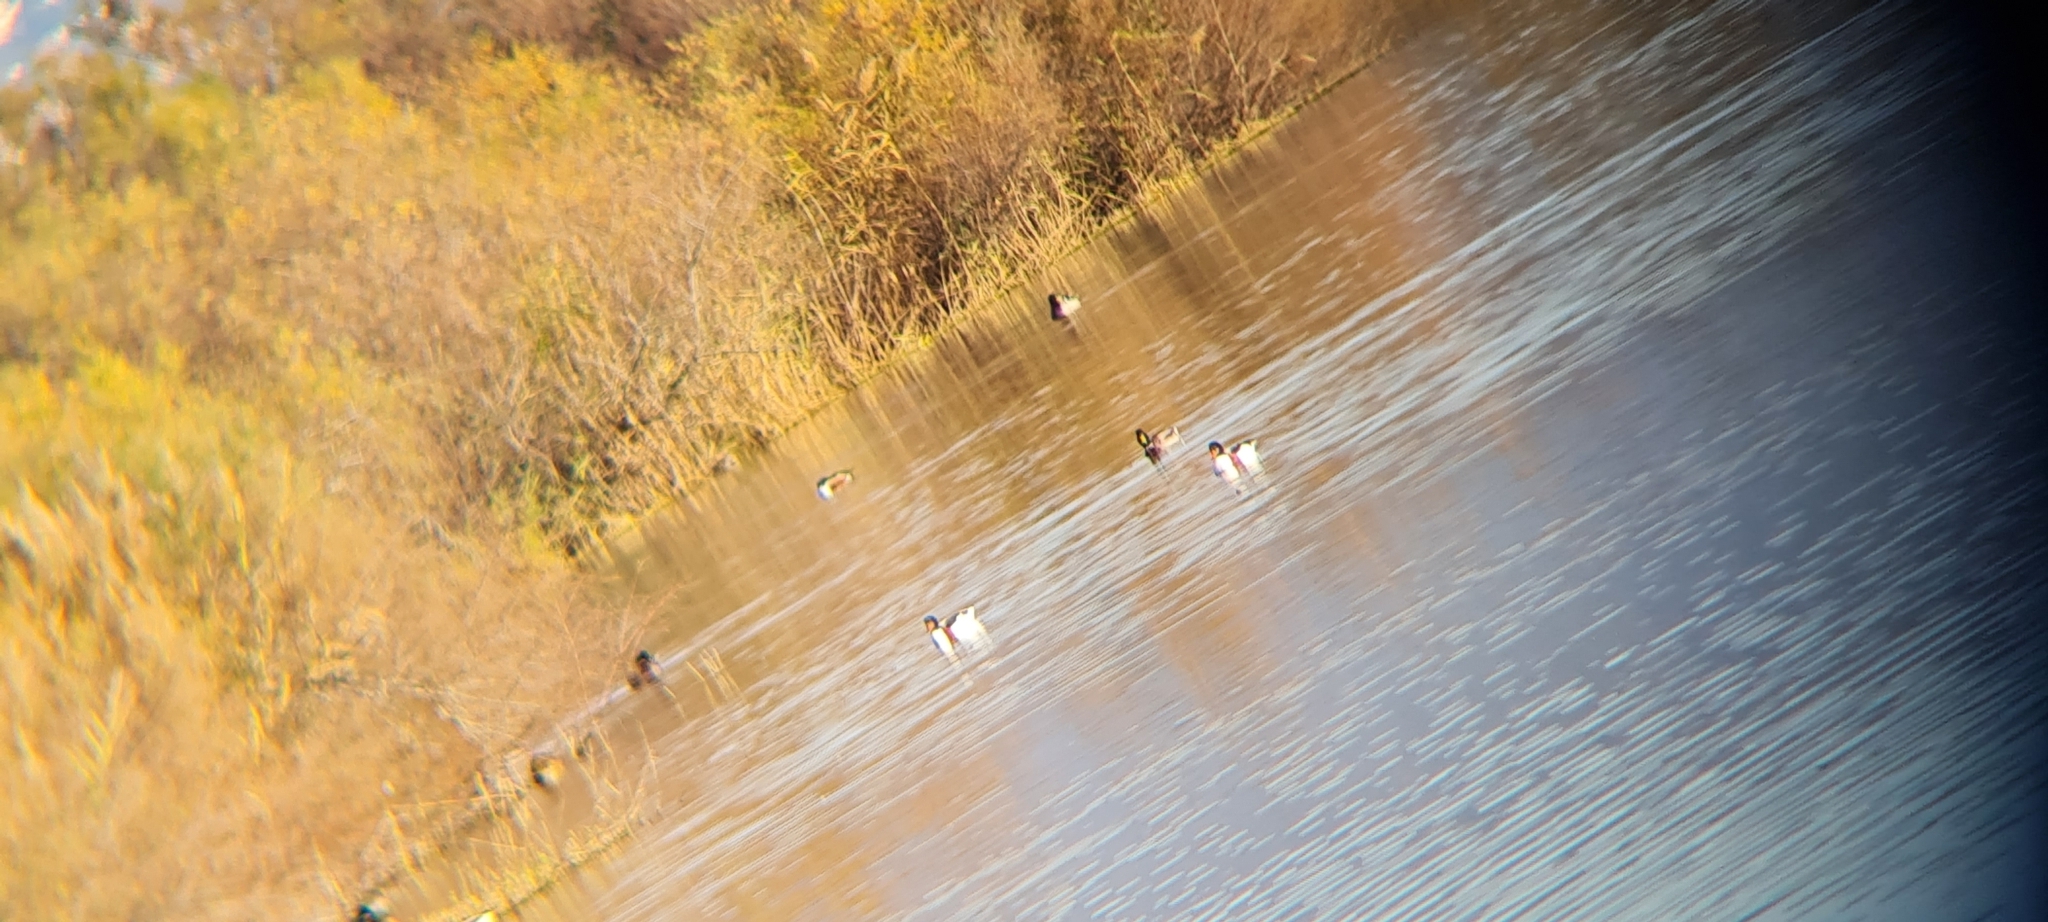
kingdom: Animalia
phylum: Chordata
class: Aves
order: Anseriformes
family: Anatidae
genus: Tadorna
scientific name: Tadorna tadorna
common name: Common shelduck
